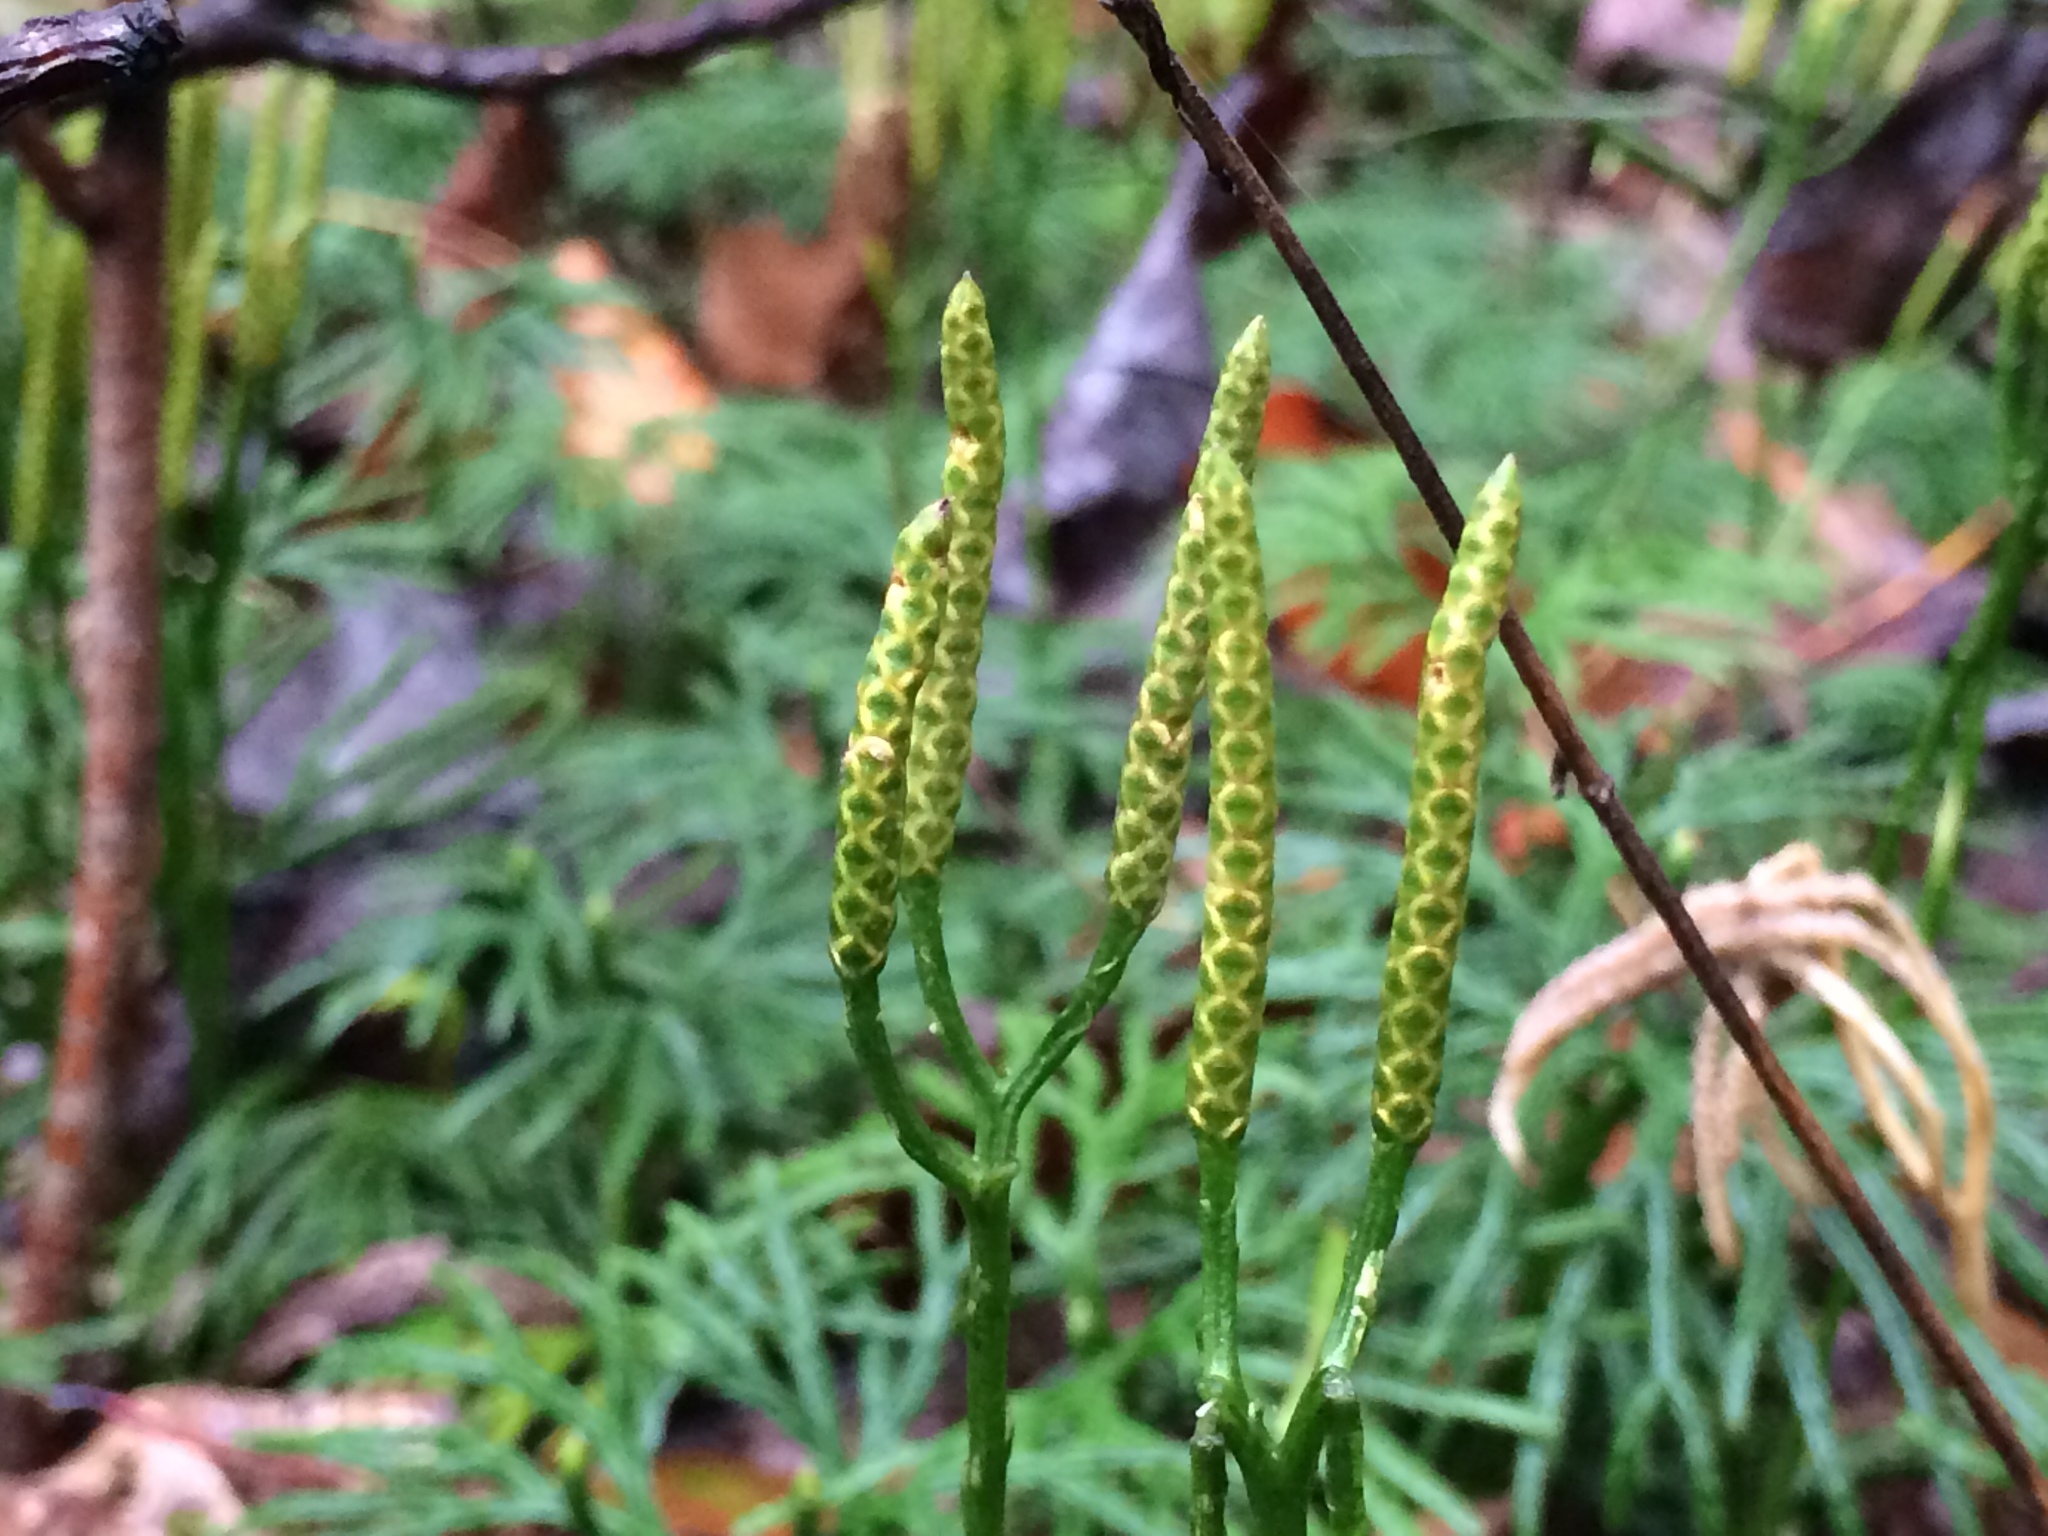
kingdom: Plantae
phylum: Tracheophyta
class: Lycopodiopsida
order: Lycopodiales
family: Lycopodiaceae
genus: Diphasiastrum
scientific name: Diphasiastrum digitatum
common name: Southern running-pine
